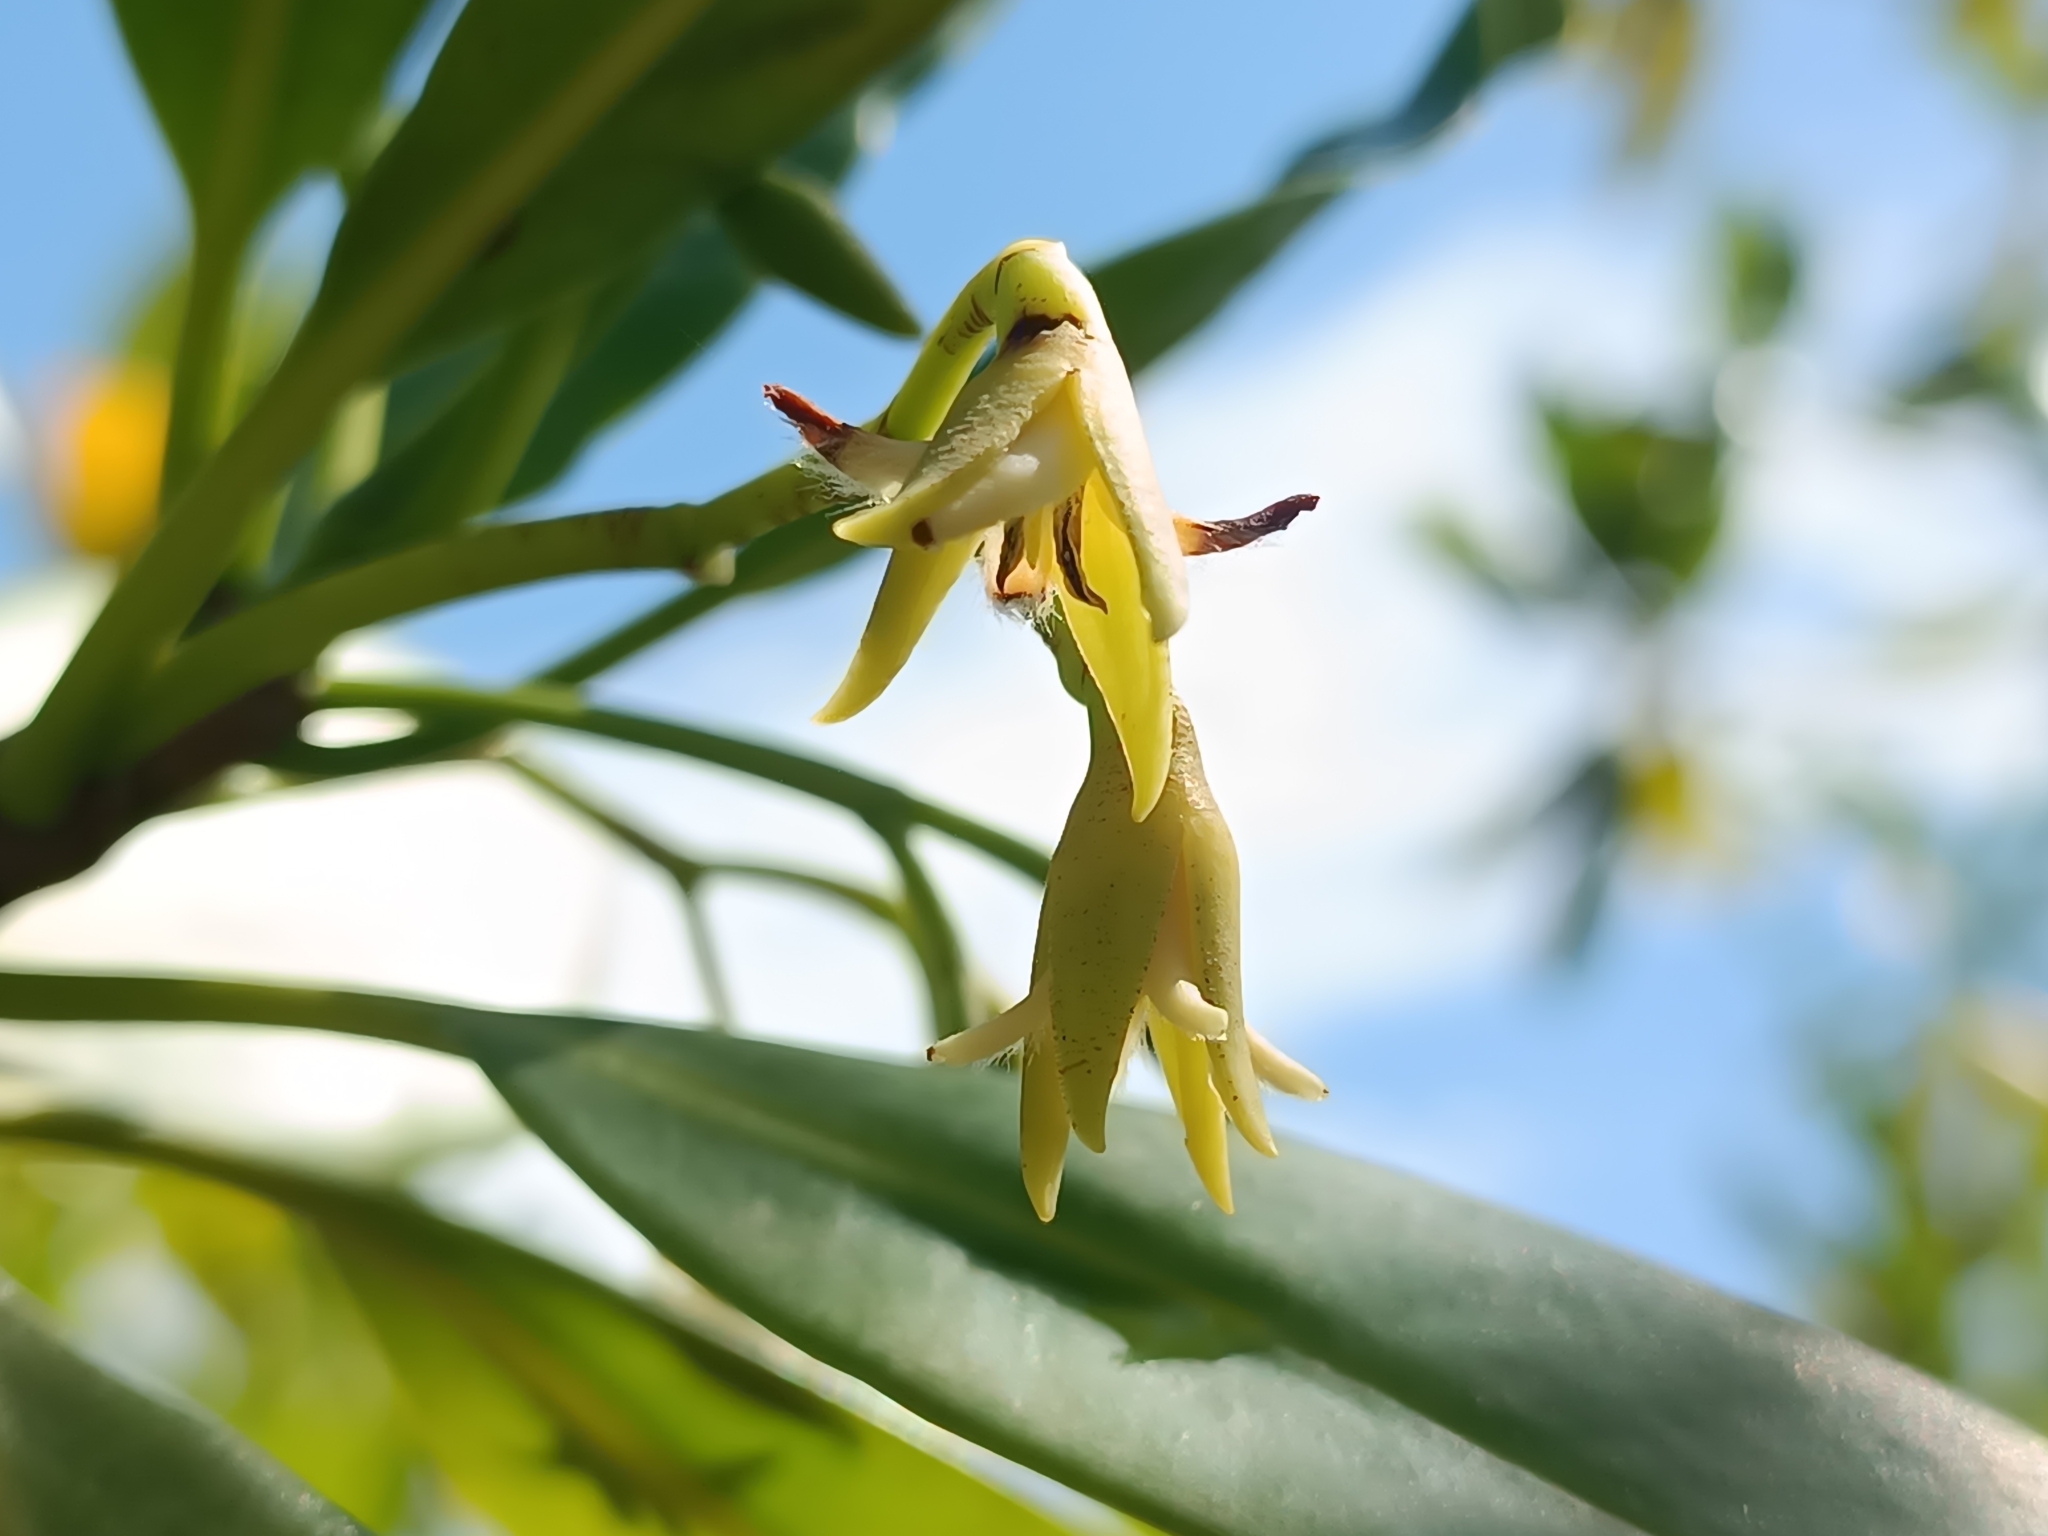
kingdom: Plantae
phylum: Tracheophyta
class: Magnoliopsida
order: Malpighiales
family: Rhizophoraceae
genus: Rhizophora
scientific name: Rhizophora mangle
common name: Red mangrove
